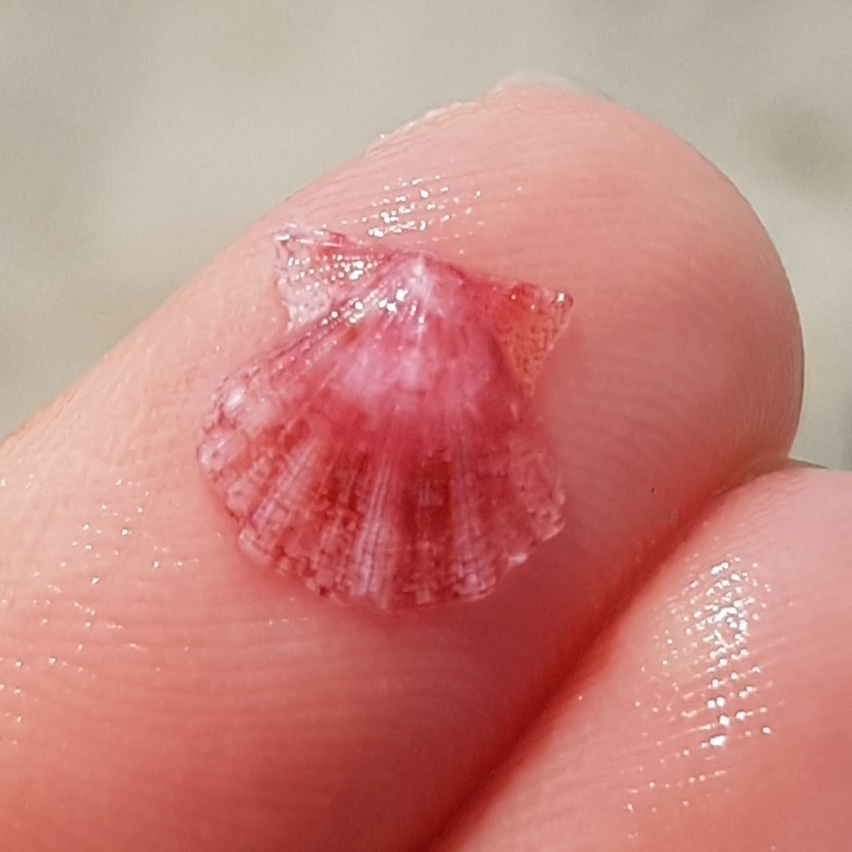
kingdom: Animalia
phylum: Mollusca
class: Bivalvia
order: Pectinida
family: Pectinidae
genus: Flexopecten
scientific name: Flexopecten flexuosus
